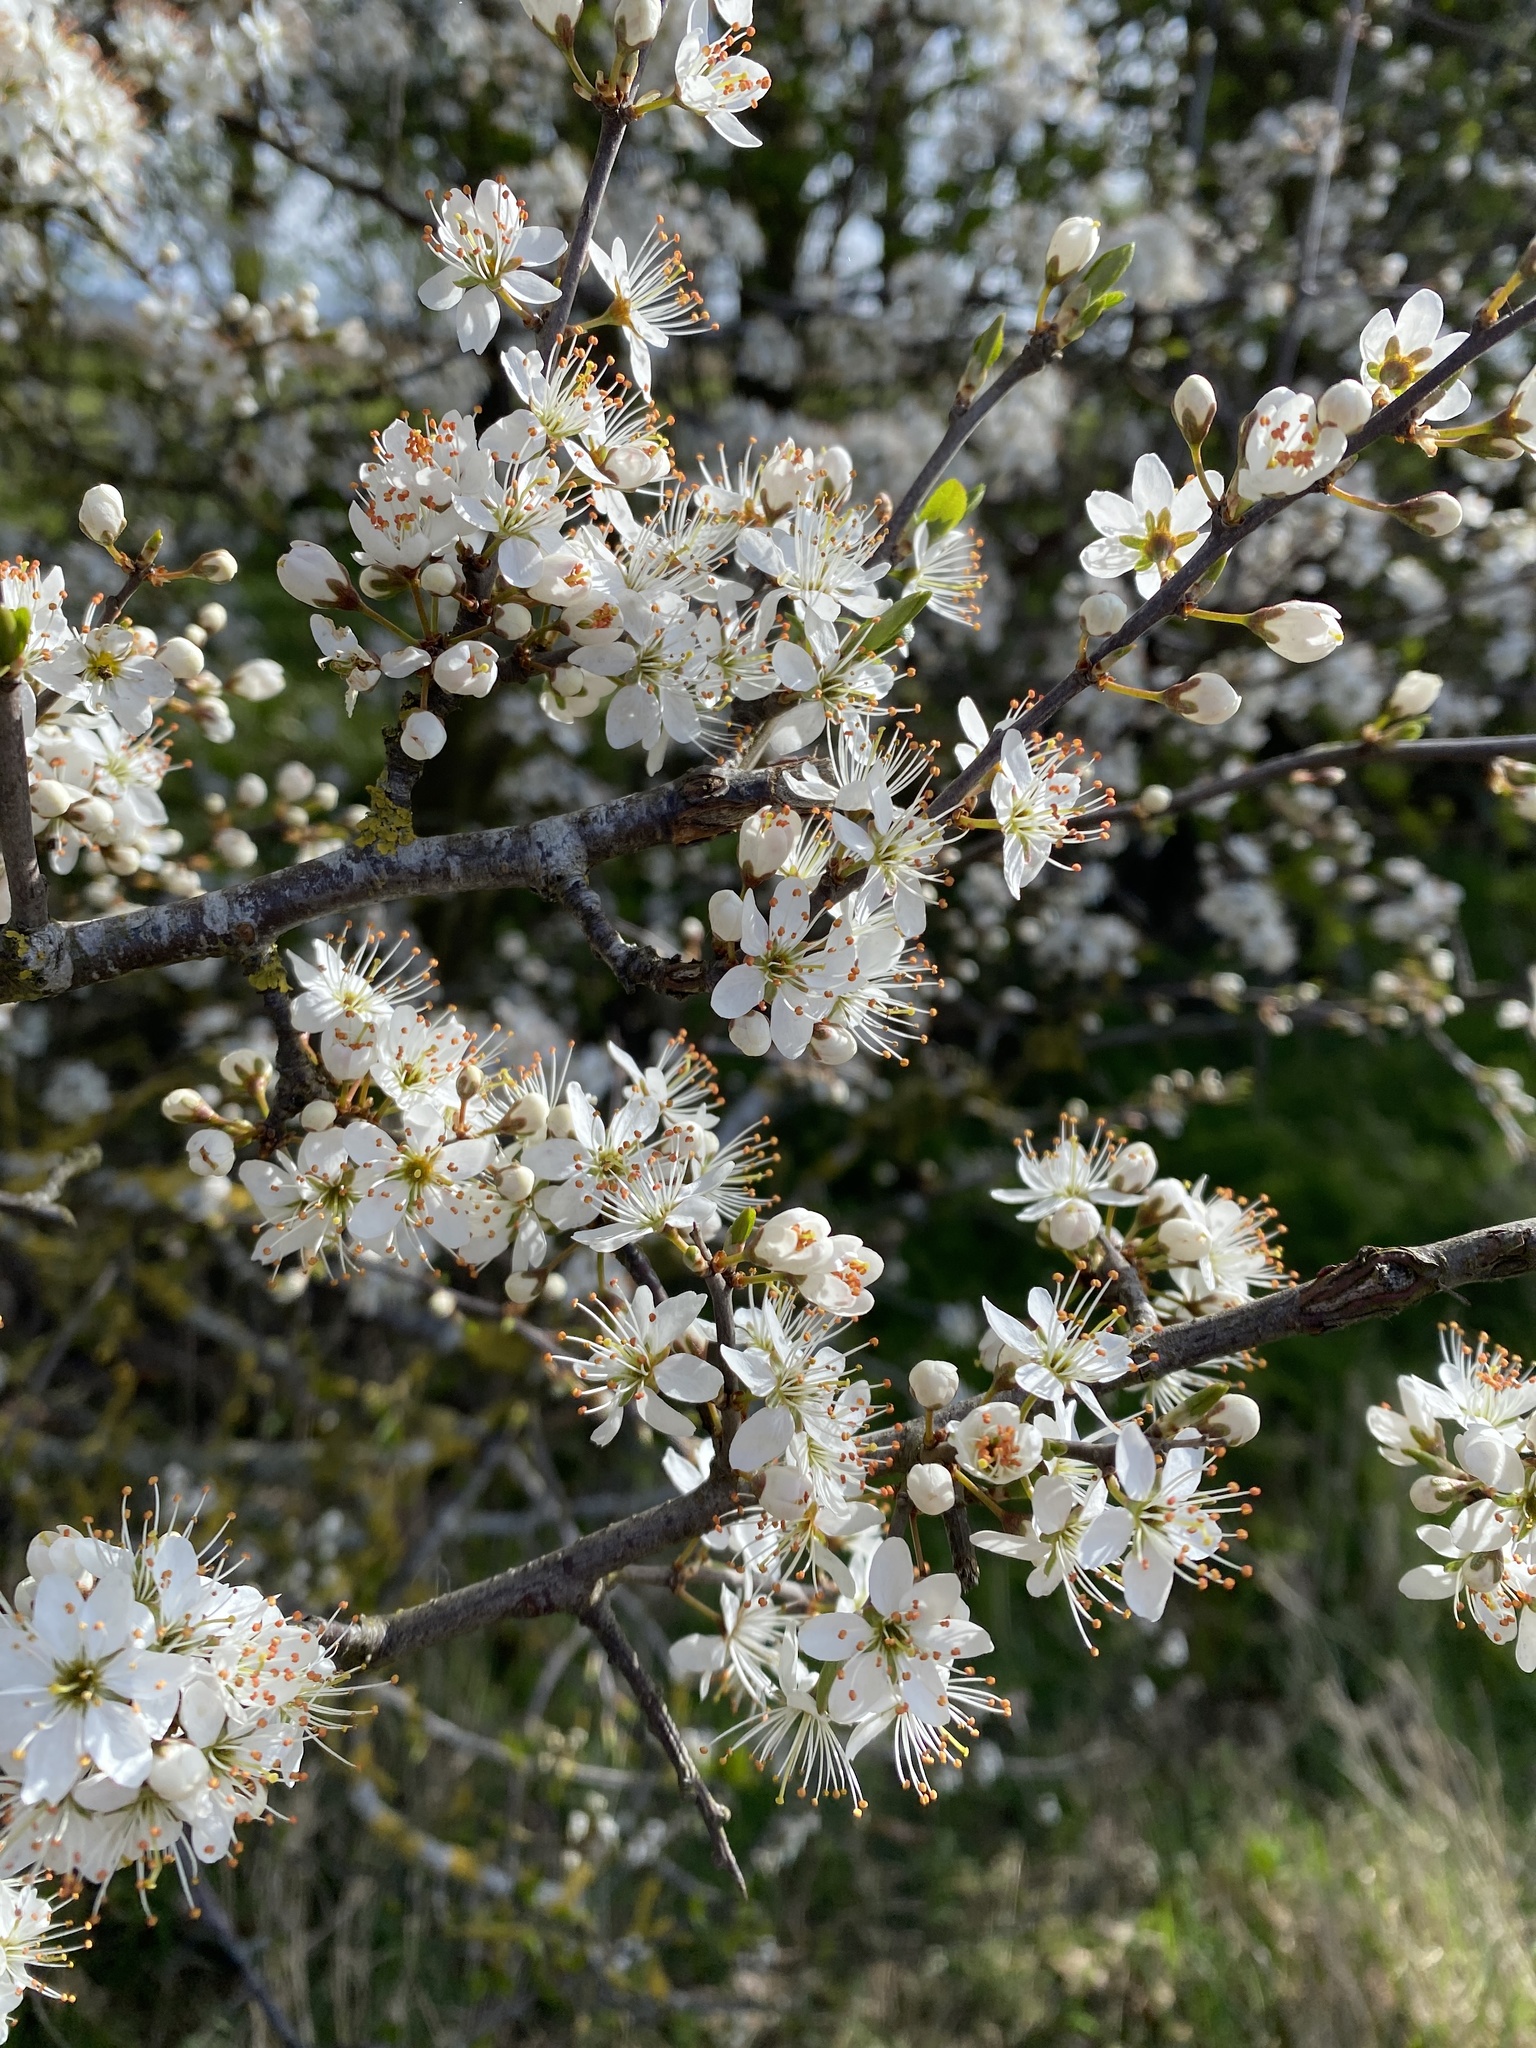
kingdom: Plantae
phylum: Tracheophyta
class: Magnoliopsida
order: Rosales
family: Rosaceae
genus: Prunus
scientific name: Prunus spinosa
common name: Blackthorn
